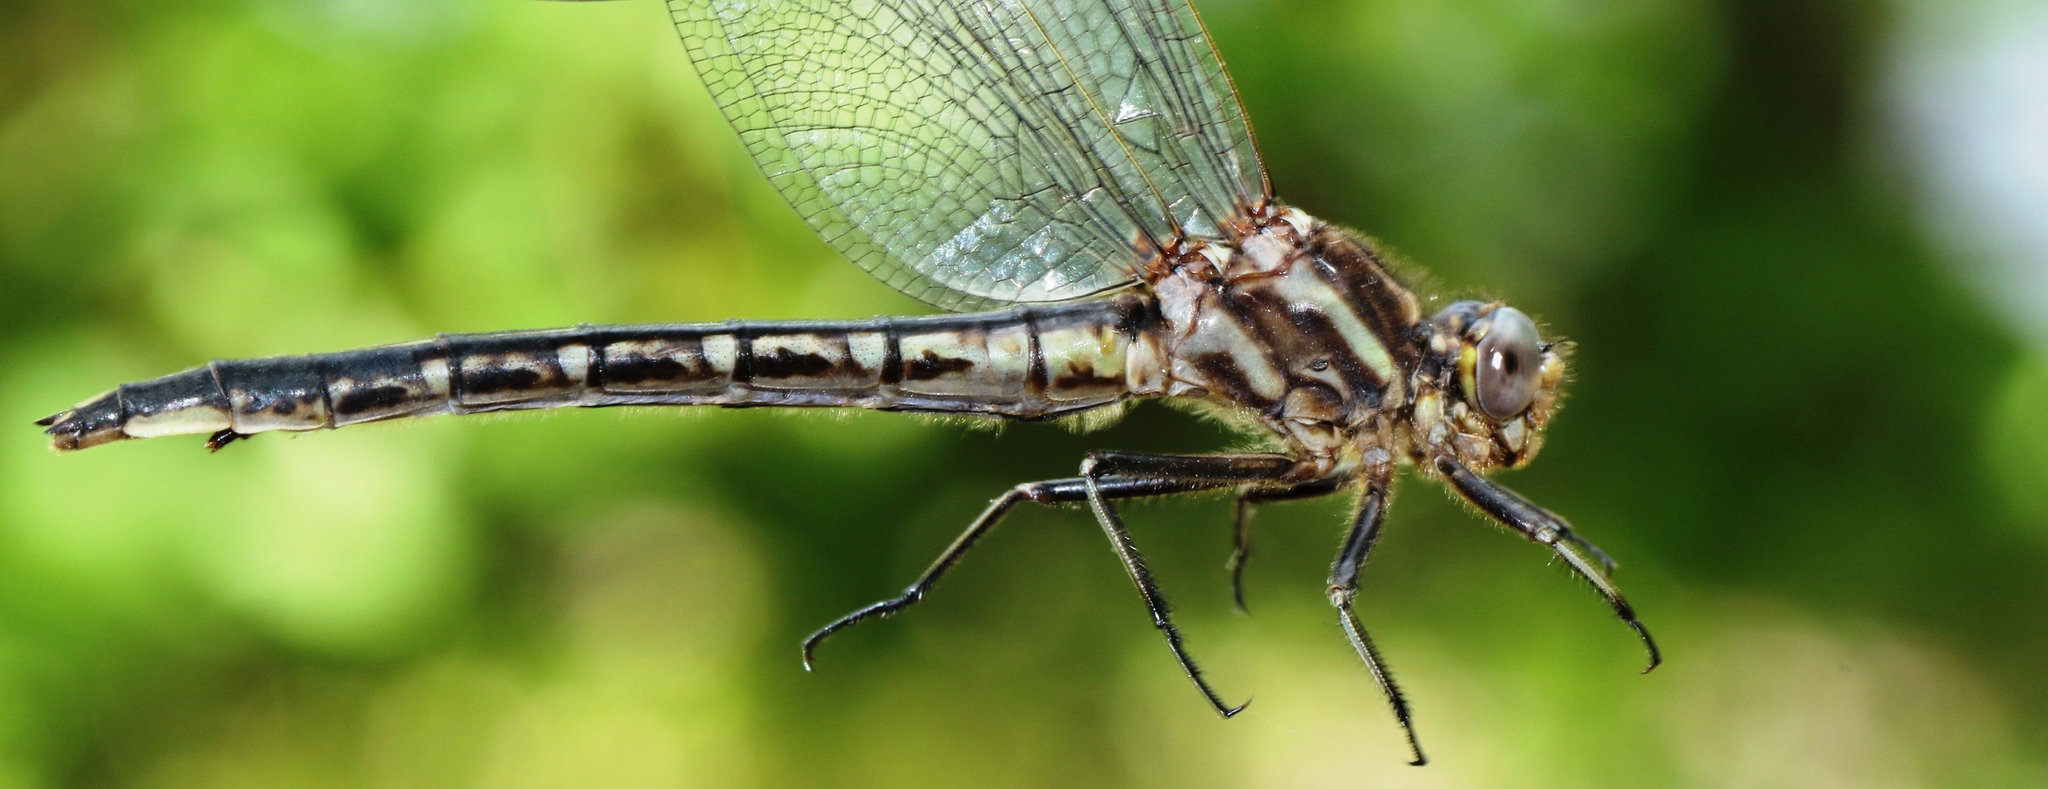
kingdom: Animalia
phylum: Arthropoda
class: Insecta
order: Odonata
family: Gomphidae
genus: Phanogomphus
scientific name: Phanogomphus spicatus
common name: Dusky clubtail
